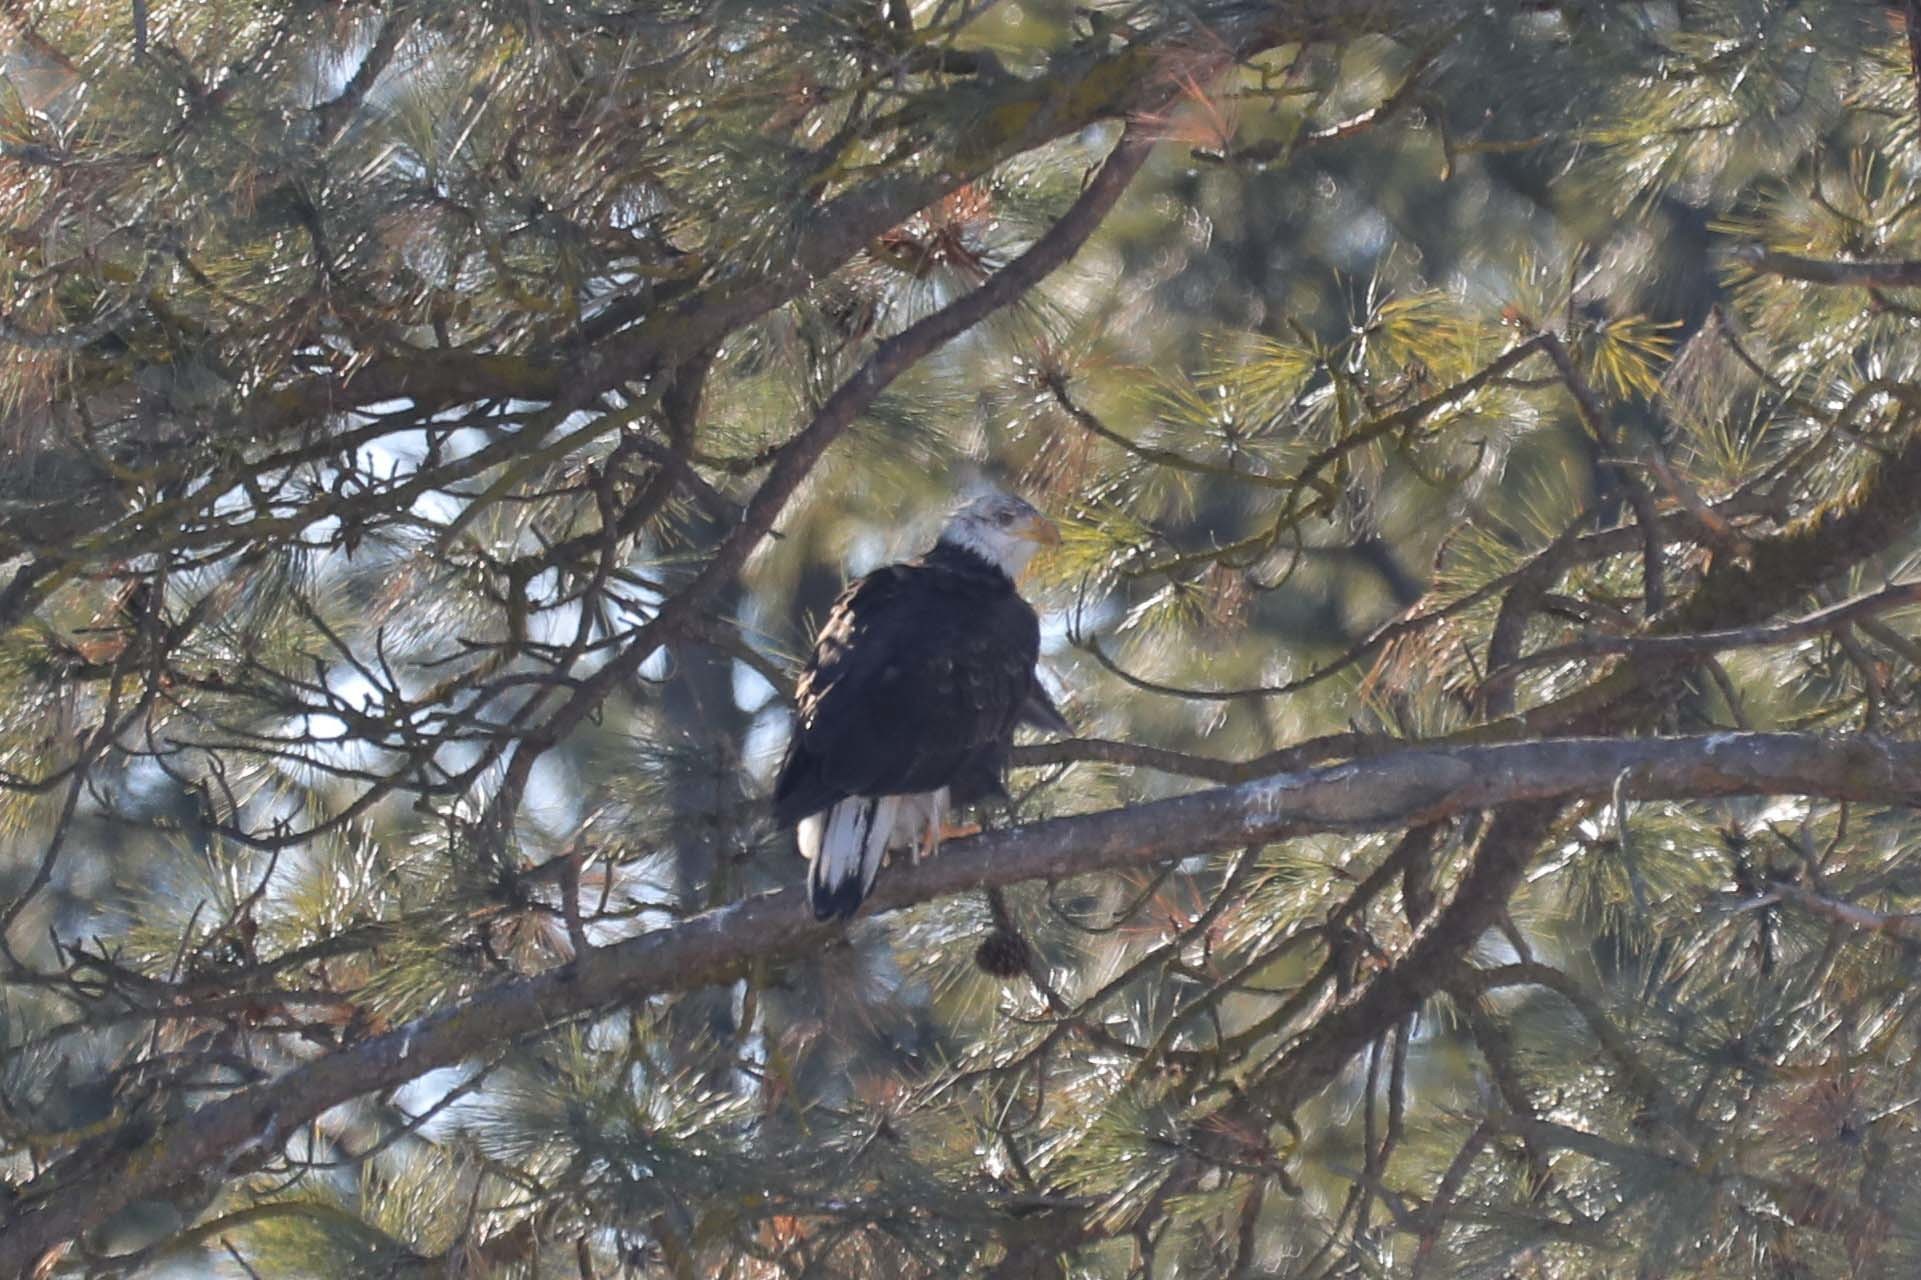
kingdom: Animalia
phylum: Chordata
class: Aves
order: Accipitriformes
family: Accipitridae
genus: Haliaeetus
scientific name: Haliaeetus leucocephalus
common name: Bald eagle
